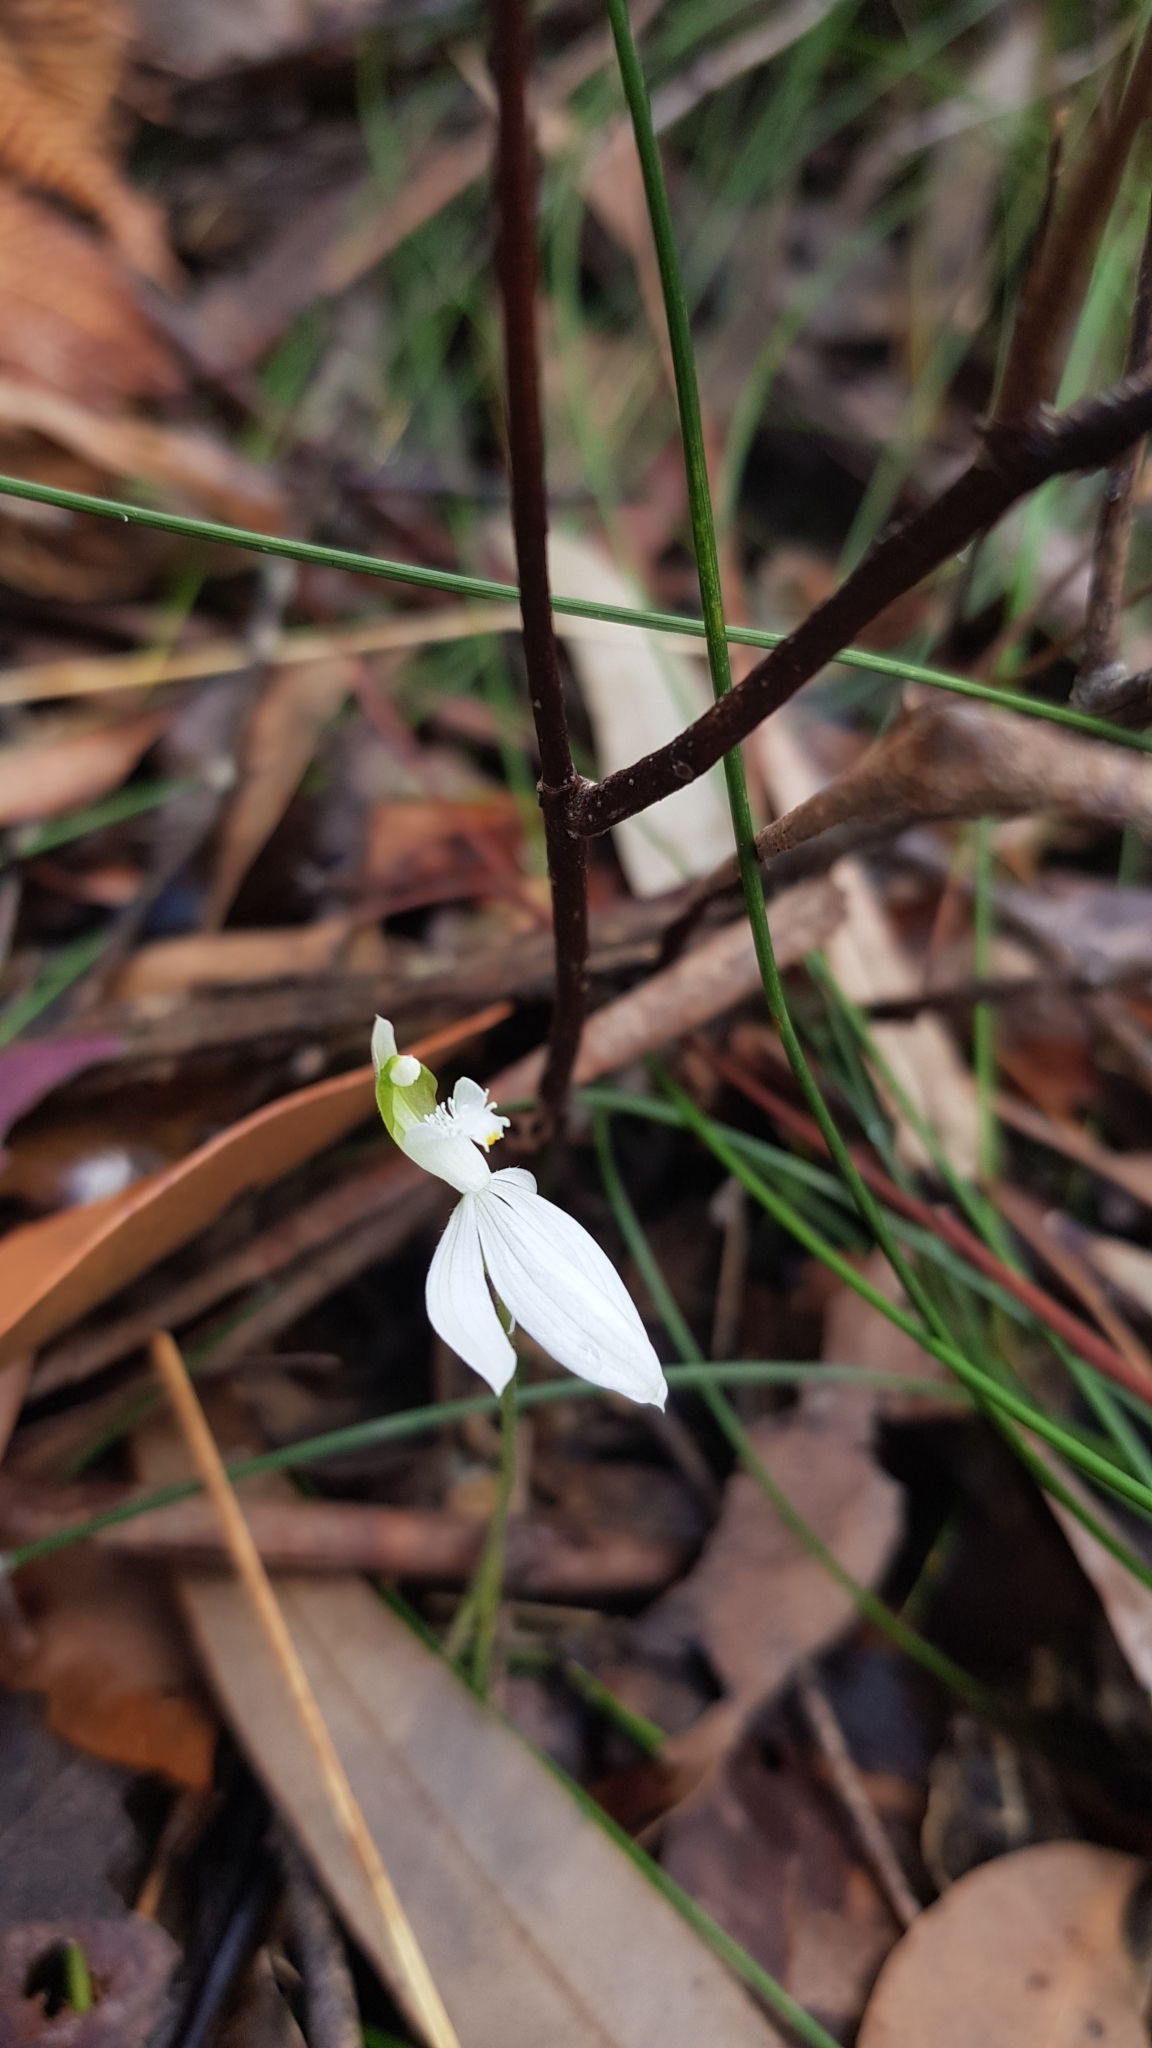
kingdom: Plantae
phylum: Tracheophyta
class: Liliopsida
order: Asparagales
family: Orchidaceae
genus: Caladenia
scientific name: Caladenia catenata
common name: White caladenia
